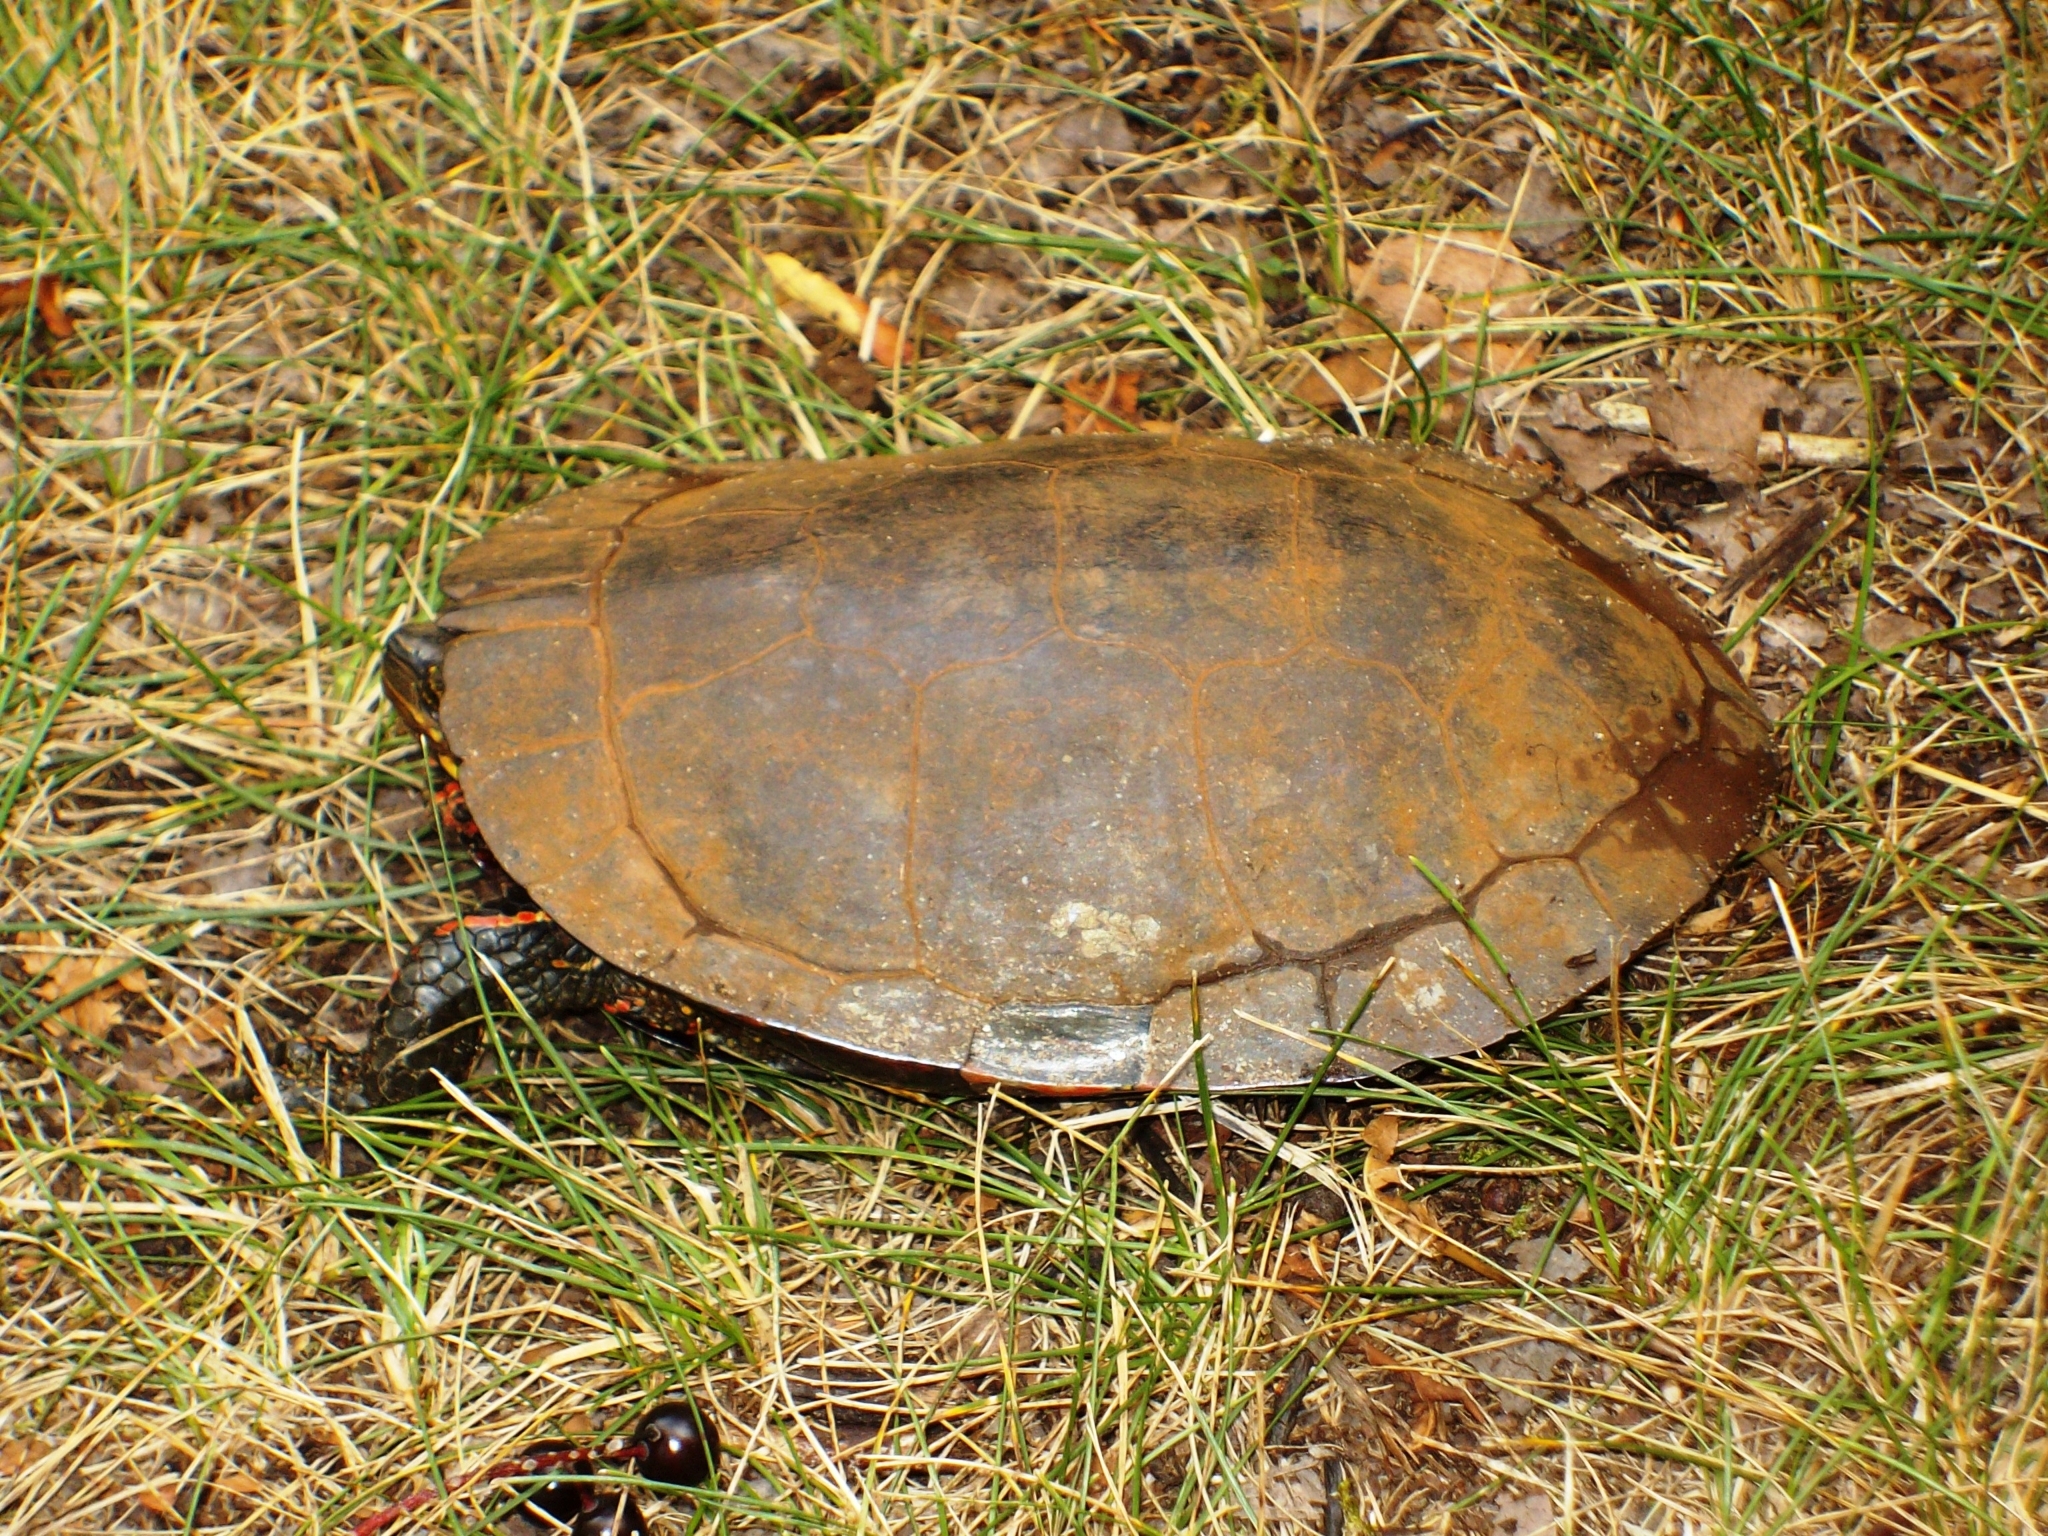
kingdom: Animalia
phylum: Chordata
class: Testudines
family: Emydidae
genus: Chrysemys
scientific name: Chrysemys picta
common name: Painted turtle
